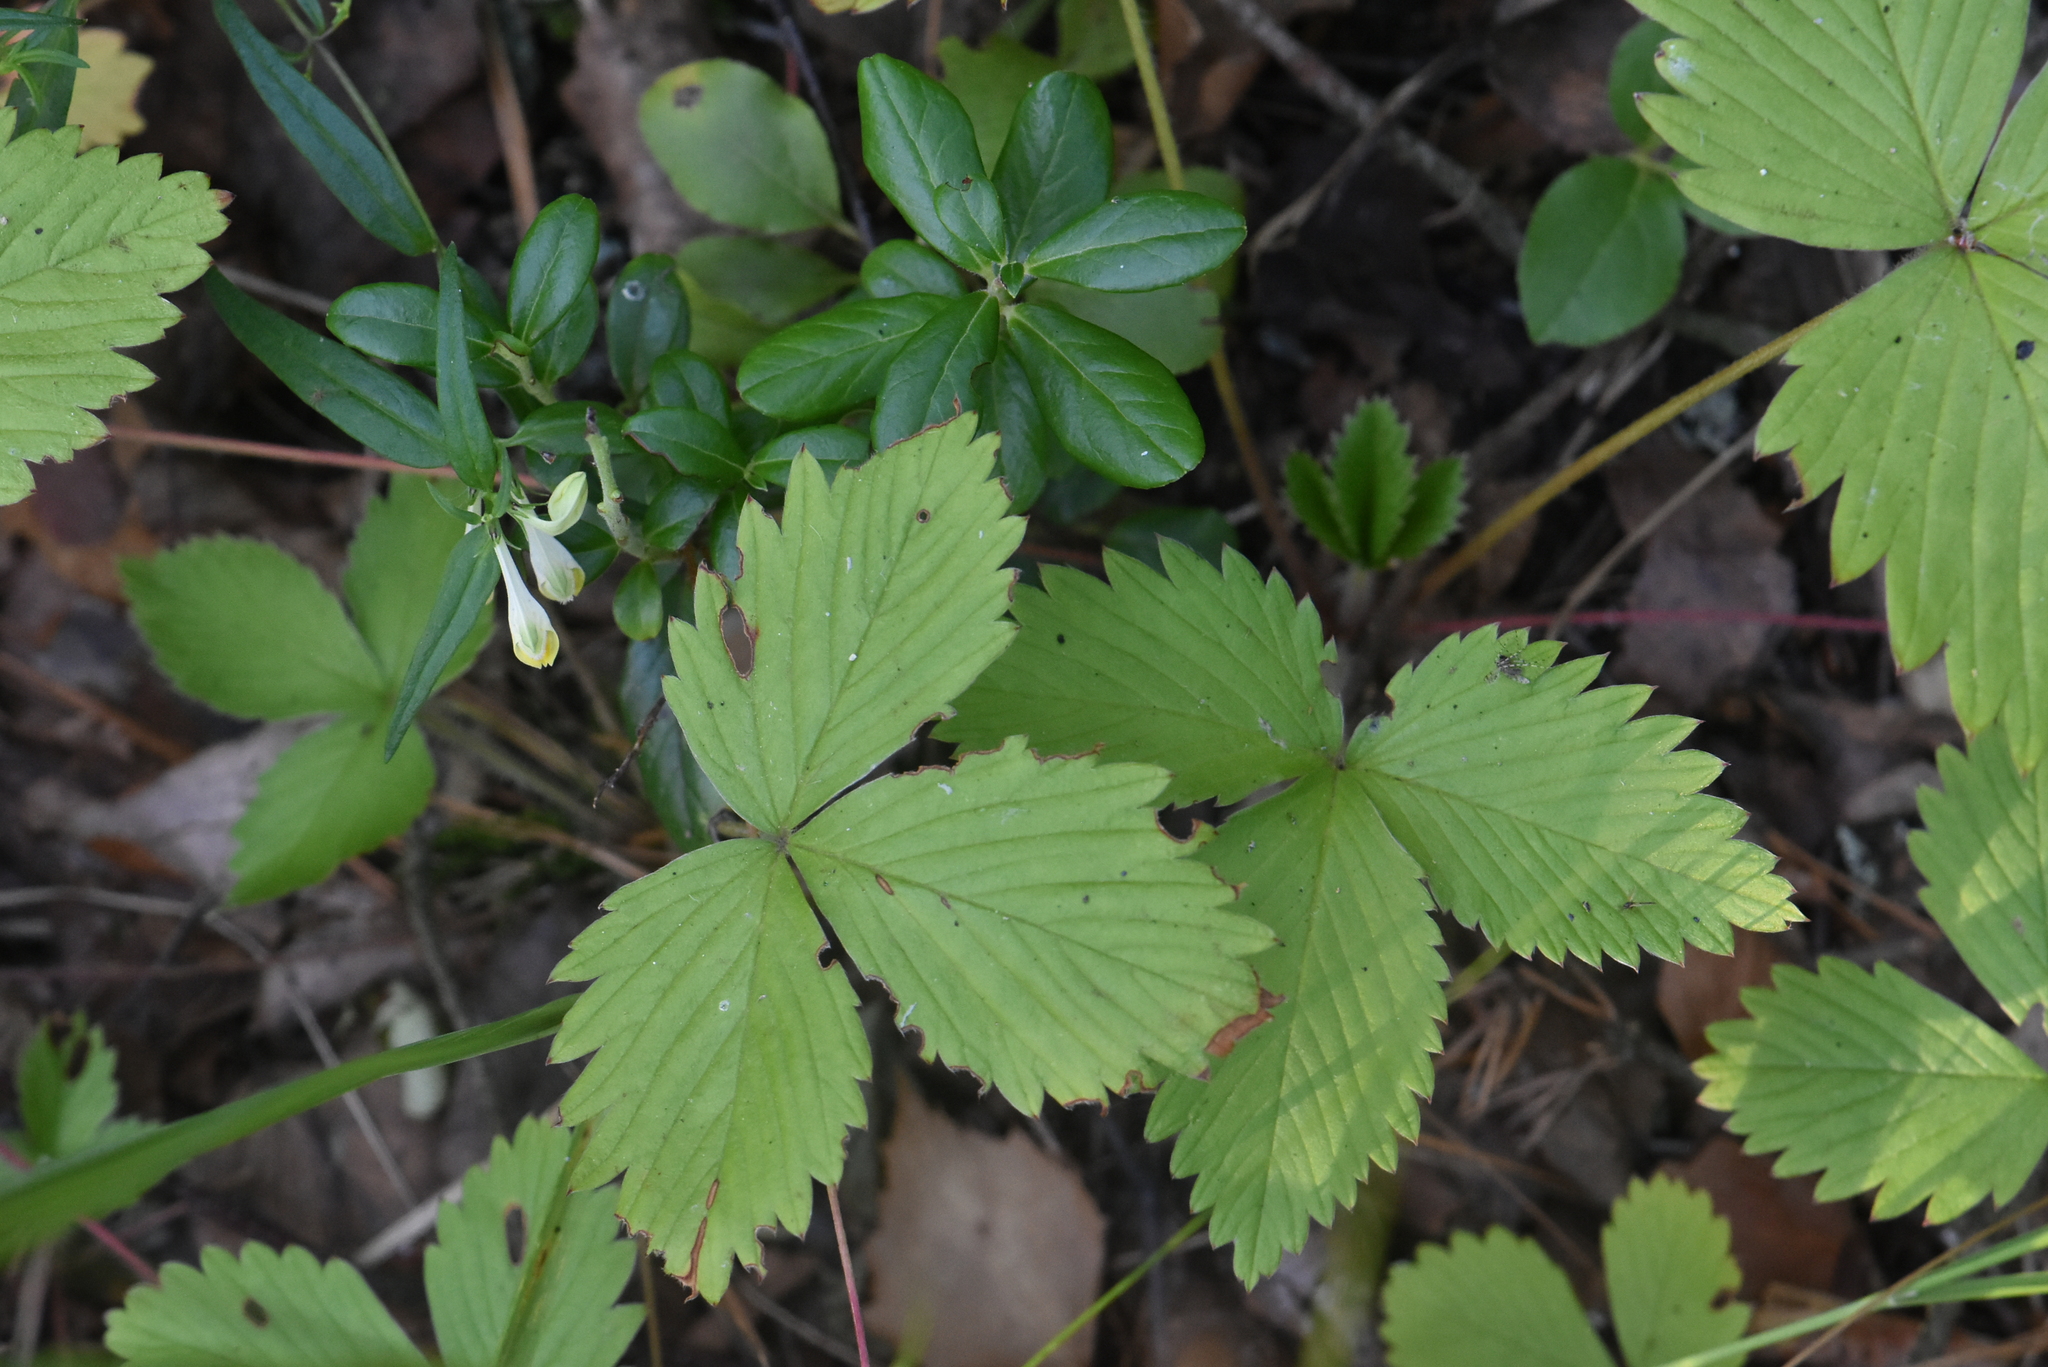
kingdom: Plantae
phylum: Tracheophyta
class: Magnoliopsida
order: Rosales
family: Rosaceae
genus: Fragaria
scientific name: Fragaria vesca
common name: Wild strawberry
